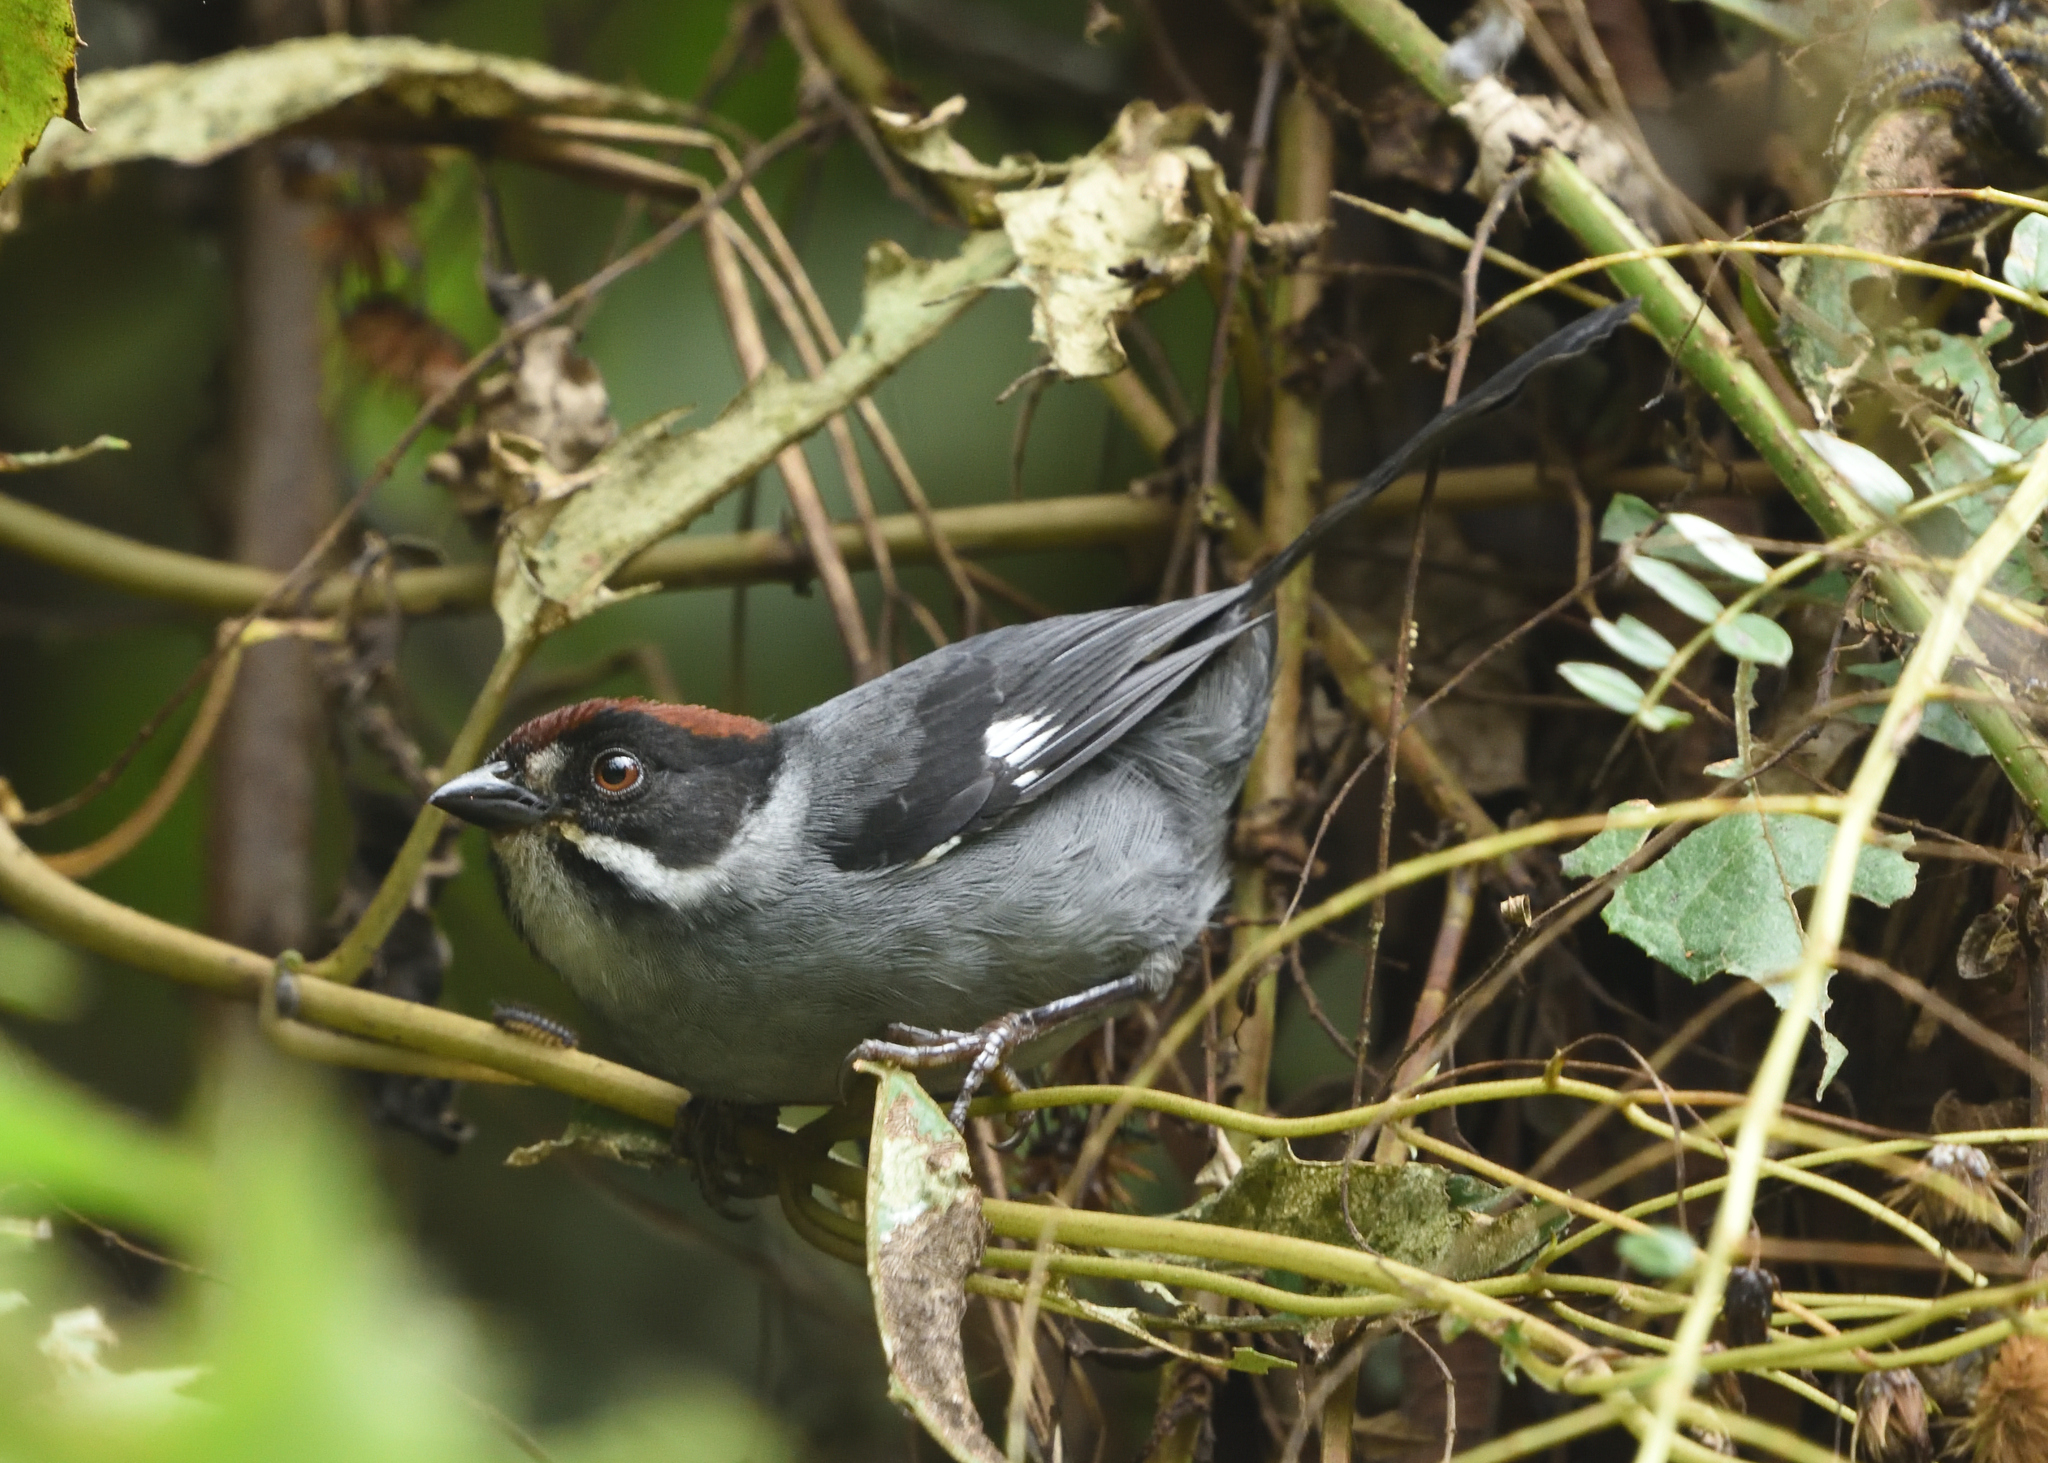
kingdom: Animalia
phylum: Chordata
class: Aves
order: Passeriformes
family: Passerellidae
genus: Atlapetes
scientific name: Atlapetes schistaceus
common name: Slaty brushfinch
